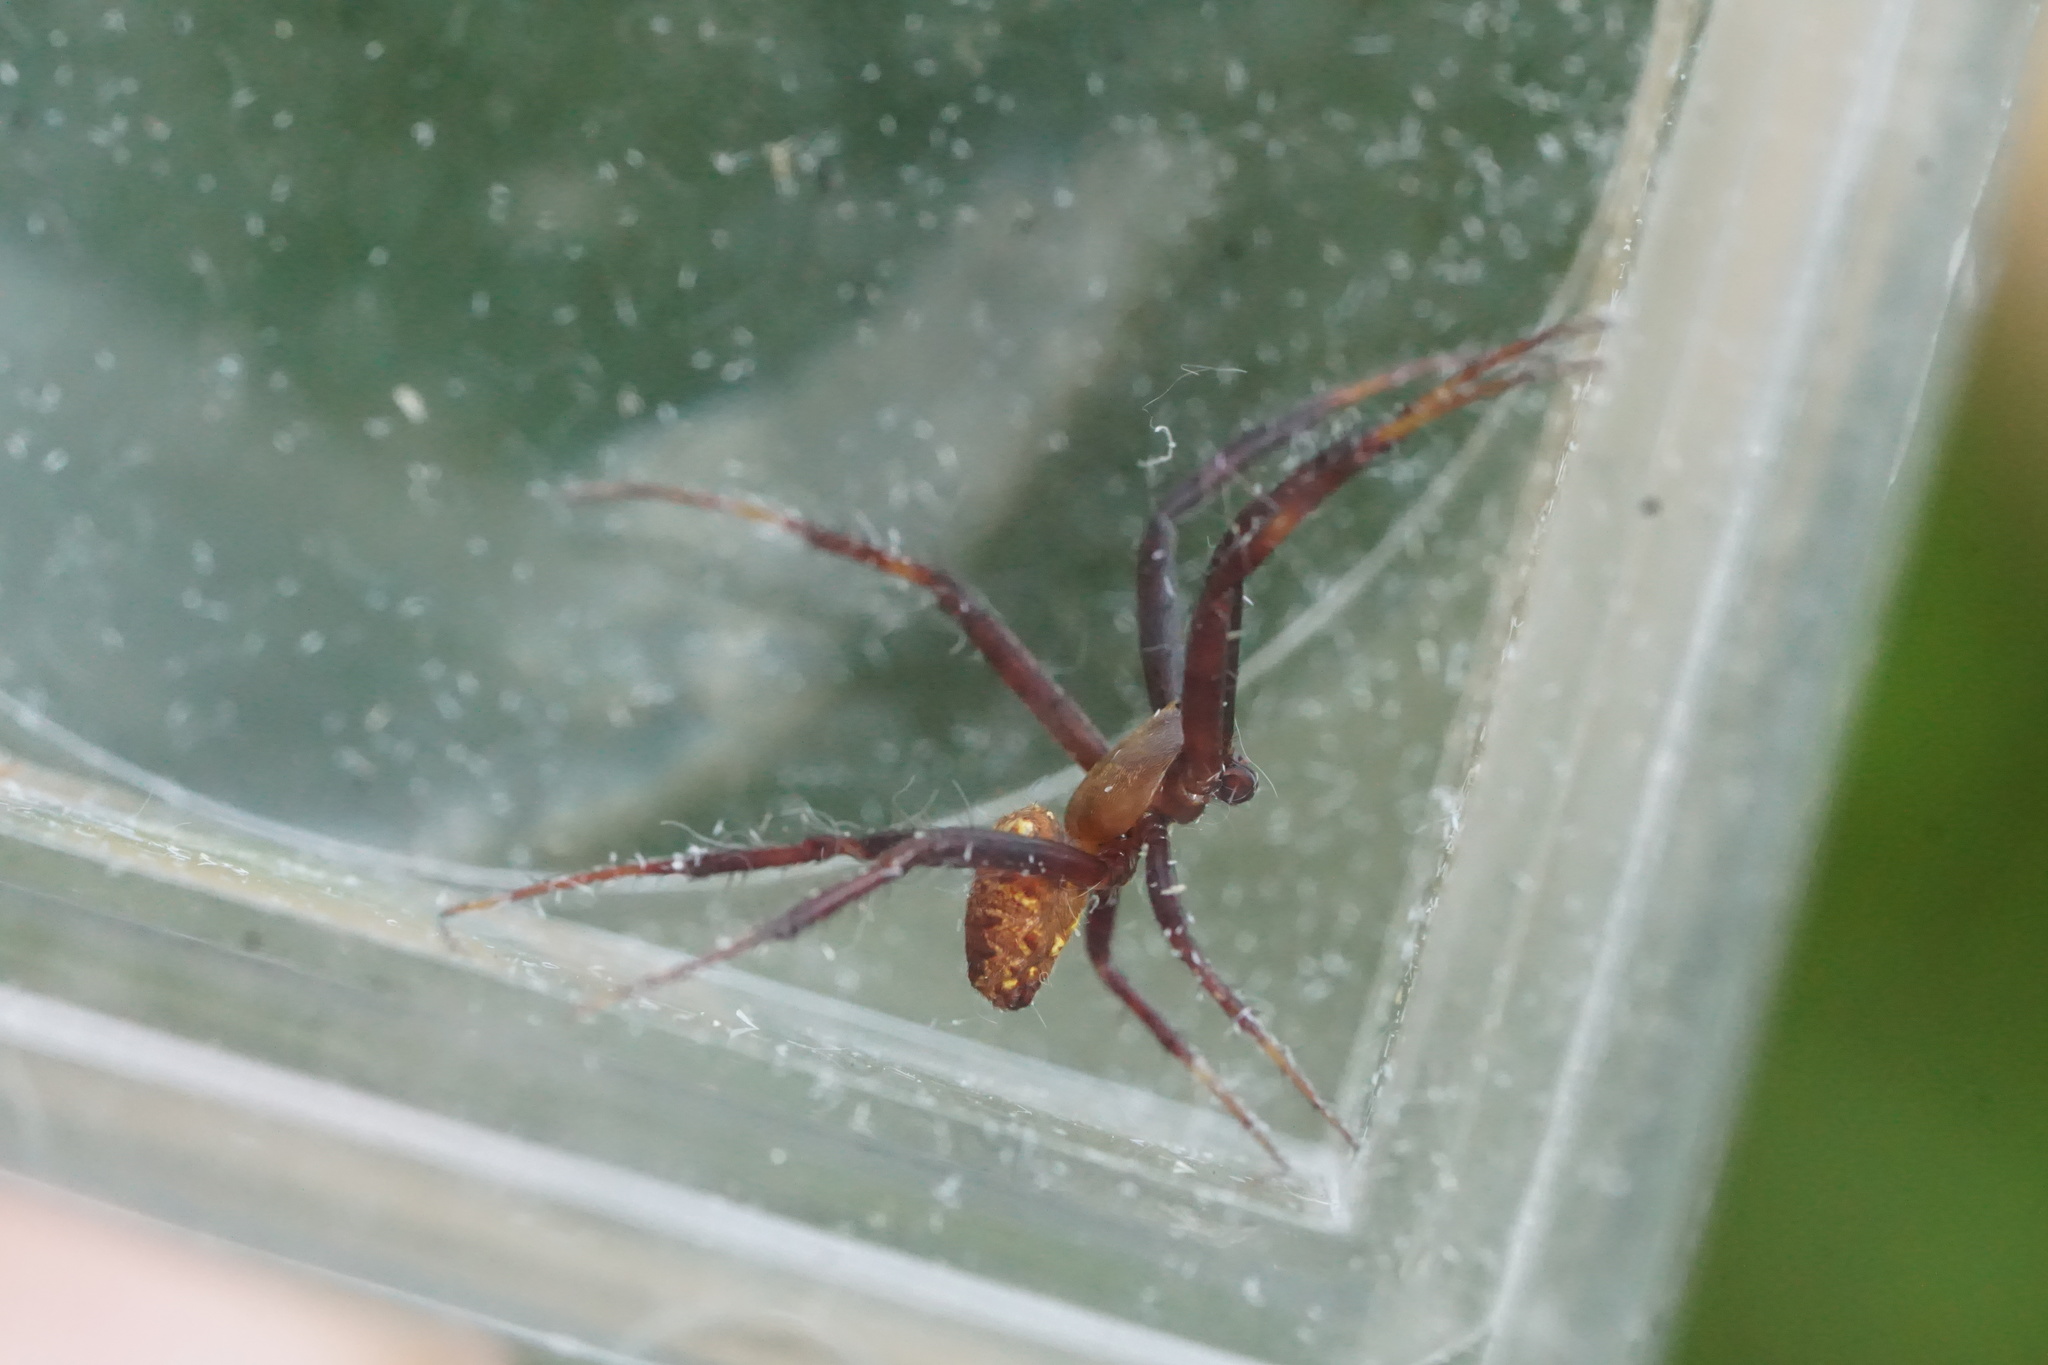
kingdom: Animalia
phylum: Arthropoda
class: Arachnida
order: Araneae
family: Araneidae
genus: Gea
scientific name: Gea heptagon
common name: Orb weavers
